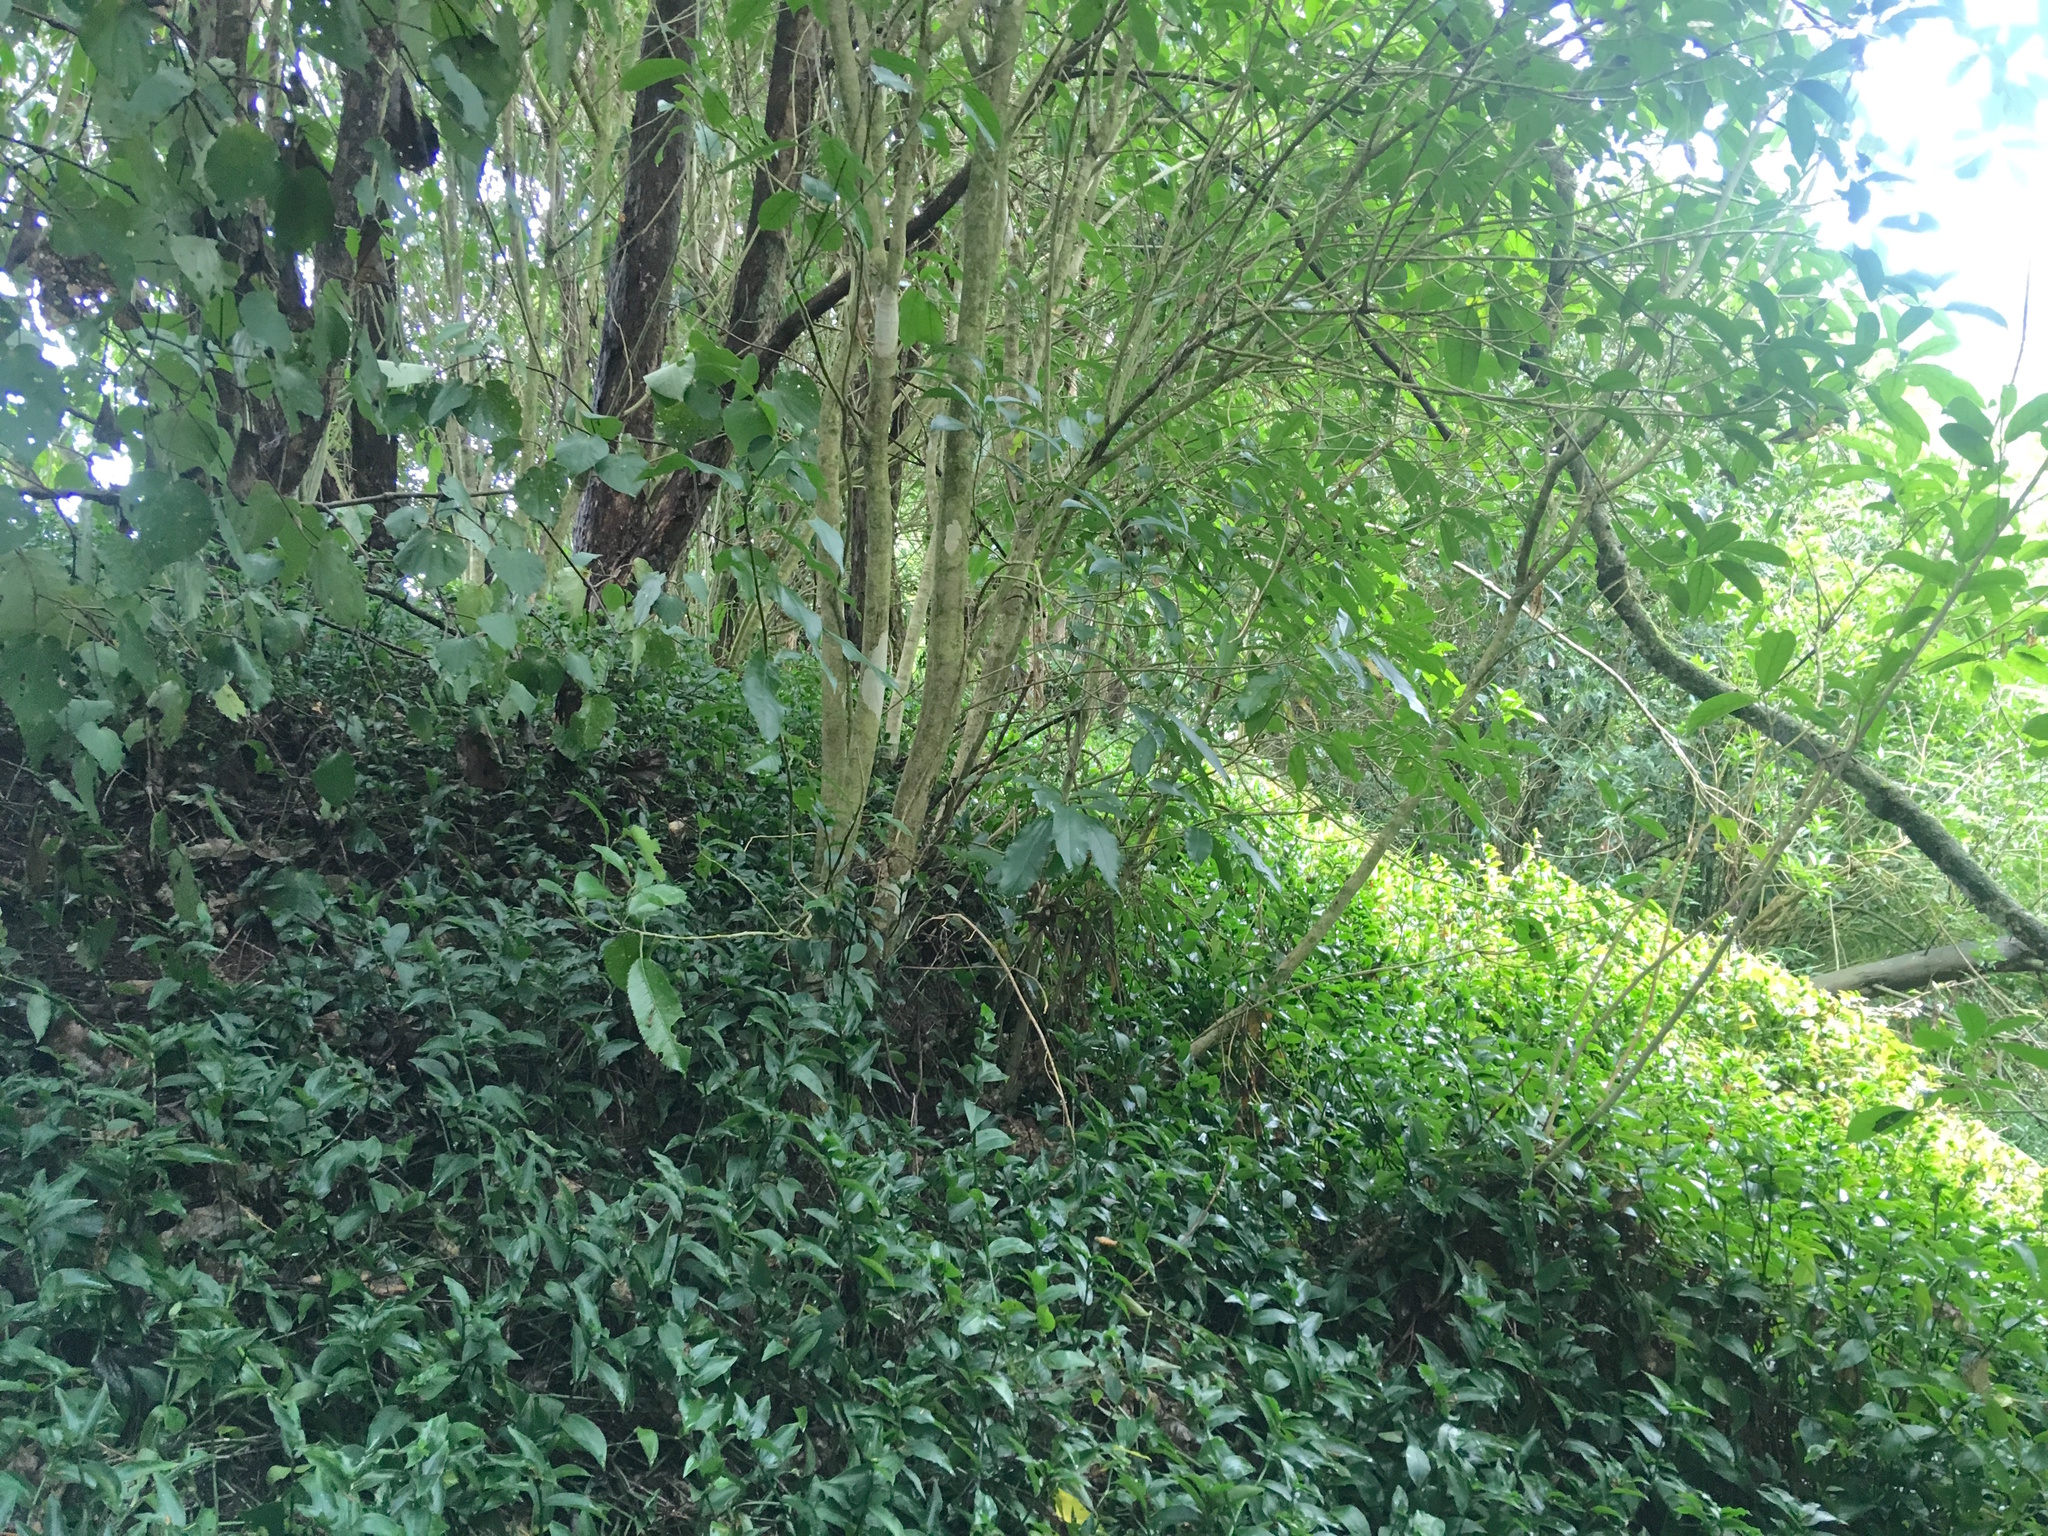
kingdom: Plantae
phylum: Tracheophyta
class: Magnoliopsida
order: Malpighiales
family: Violaceae
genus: Melicytus
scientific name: Melicytus ramiflorus
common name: Mahoe
